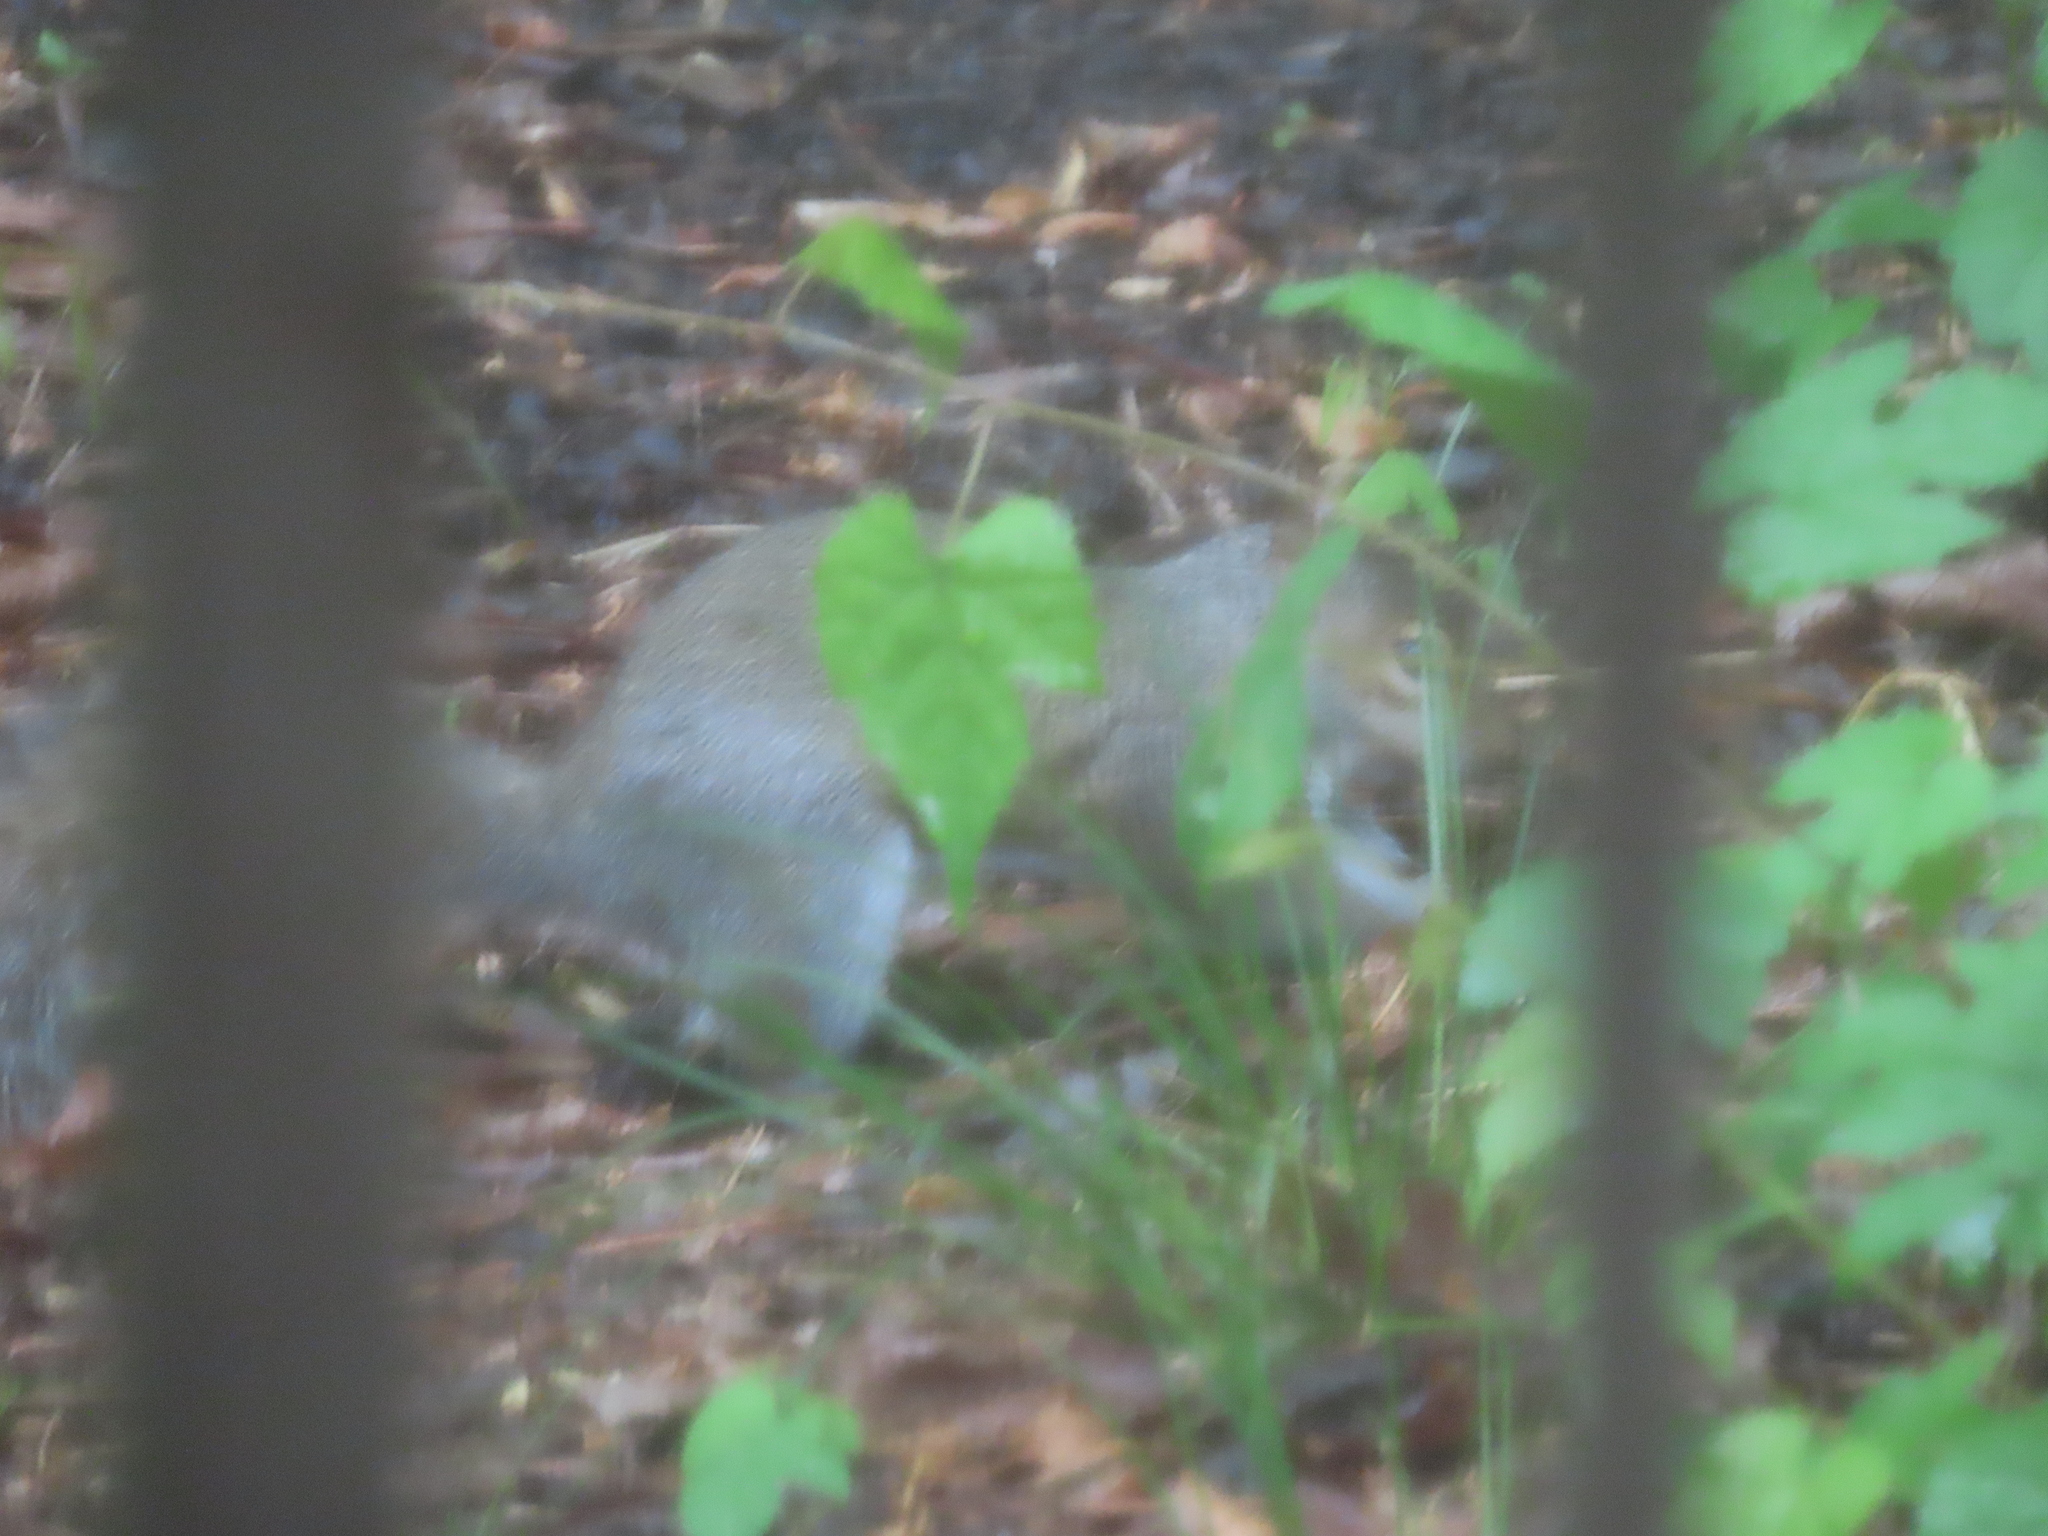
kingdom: Animalia
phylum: Chordata
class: Mammalia
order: Rodentia
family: Sciuridae
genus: Sciurus
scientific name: Sciurus carolinensis
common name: Eastern gray squirrel
